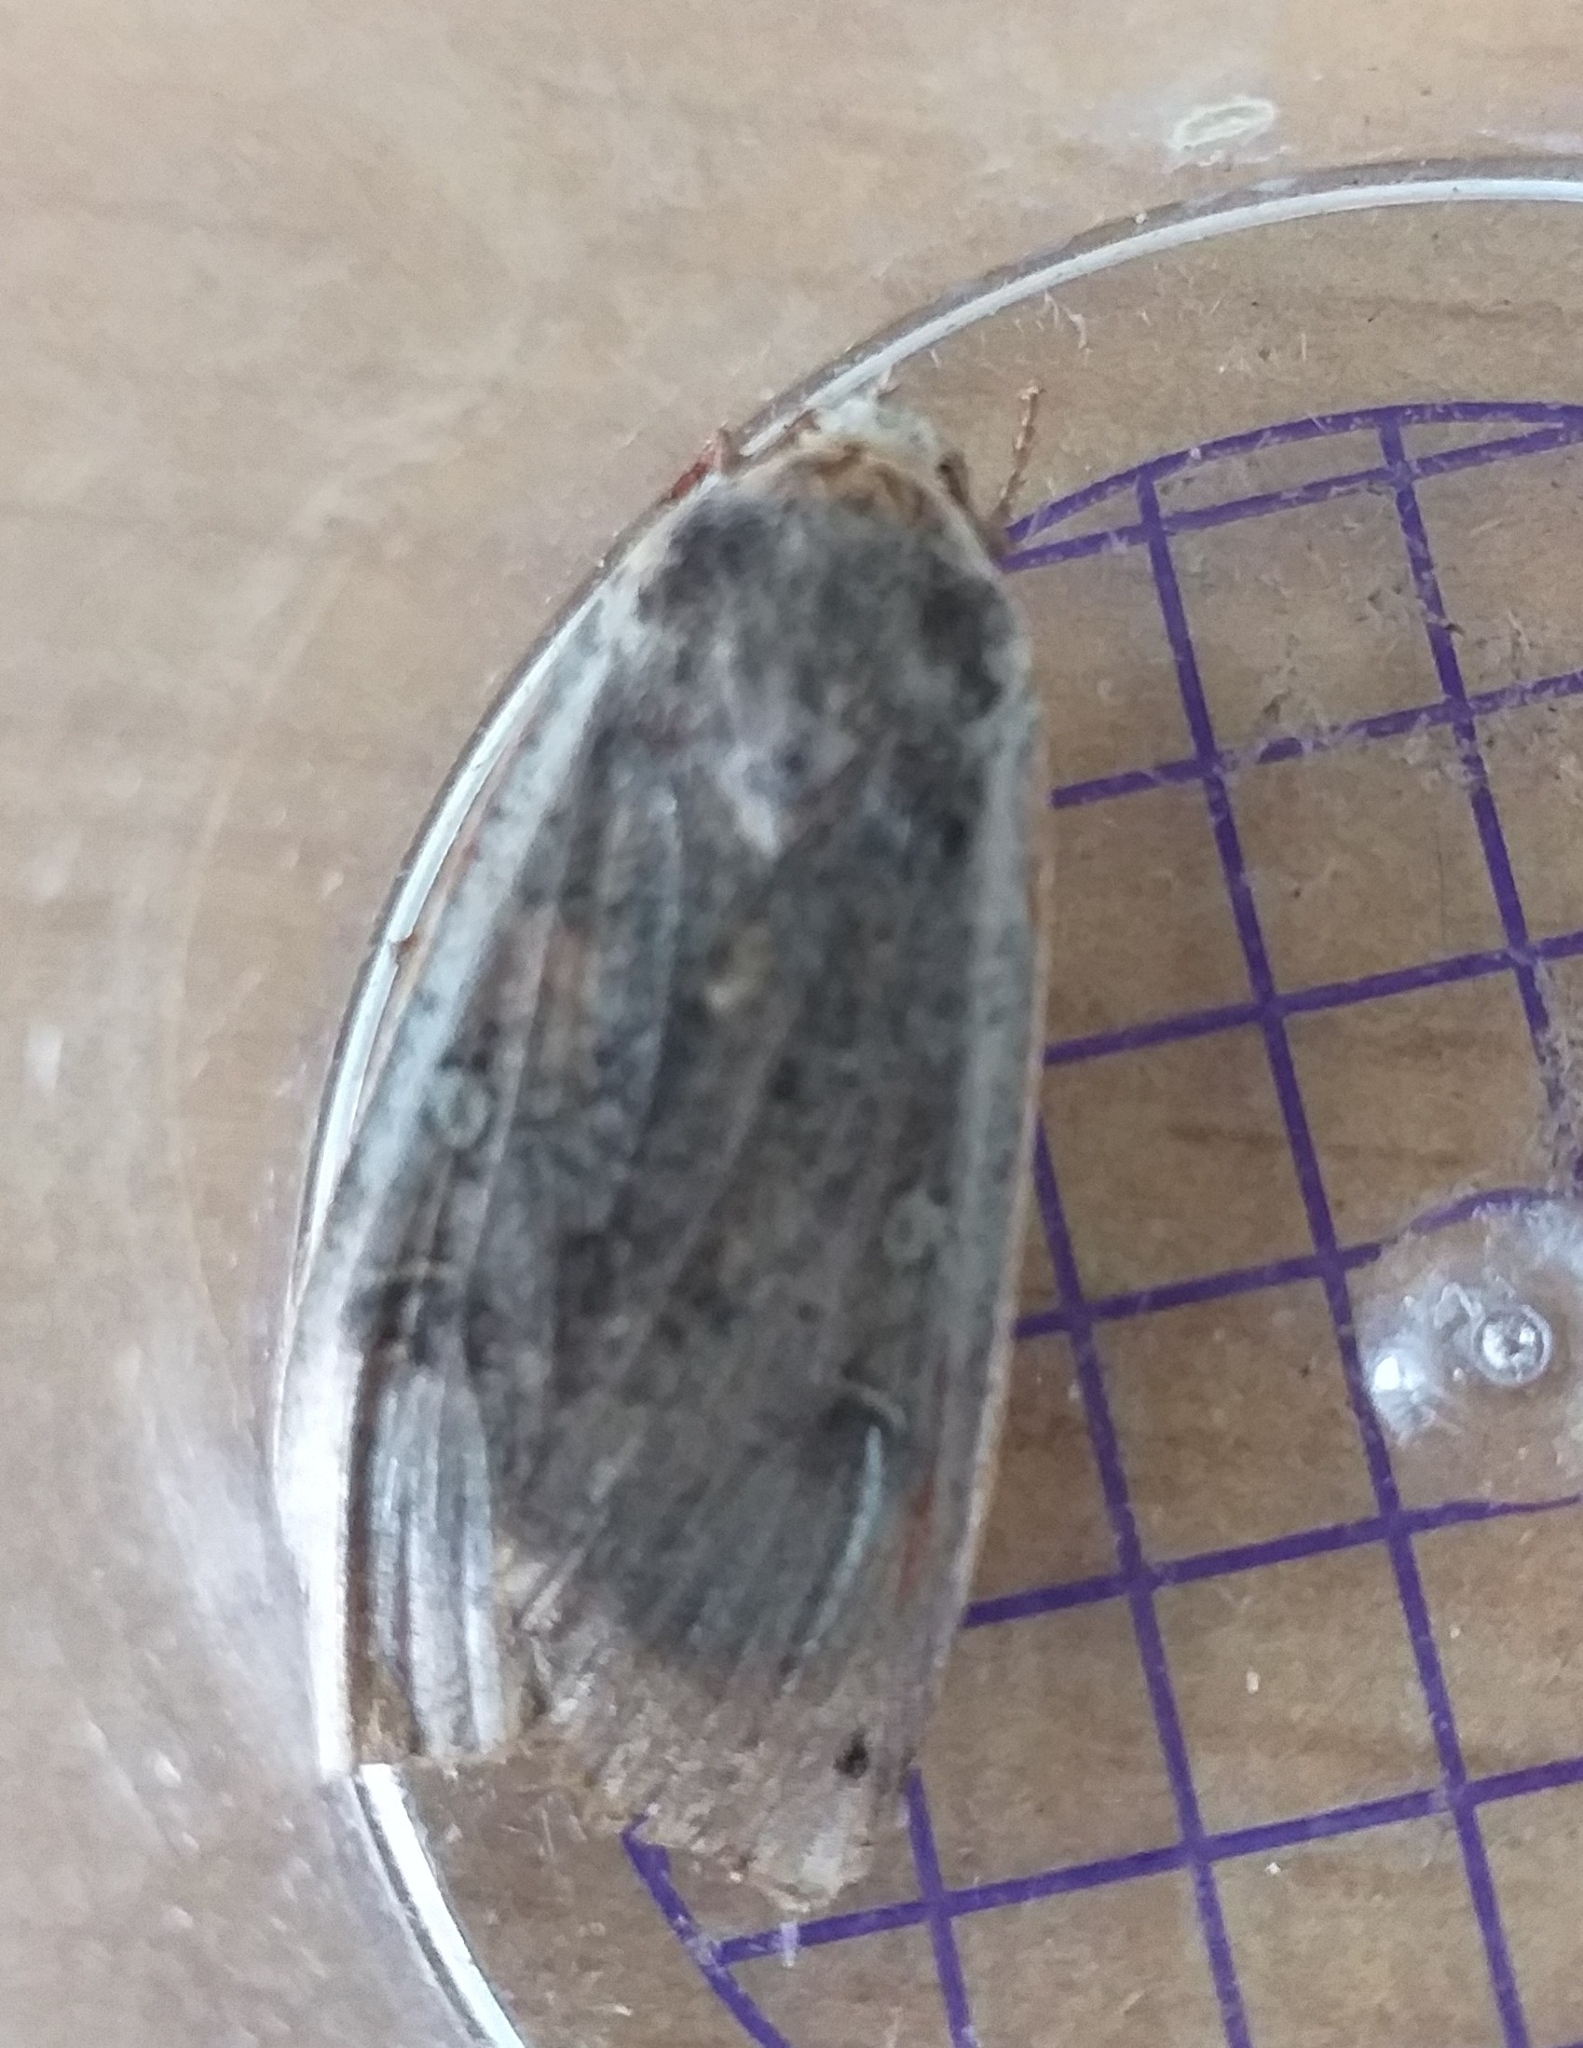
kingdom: Animalia
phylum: Arthropoda
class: Insecta
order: Lepidoptera
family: Noctuidae
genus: Noctua
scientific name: Noctua pronuba
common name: Large yellow underwing
